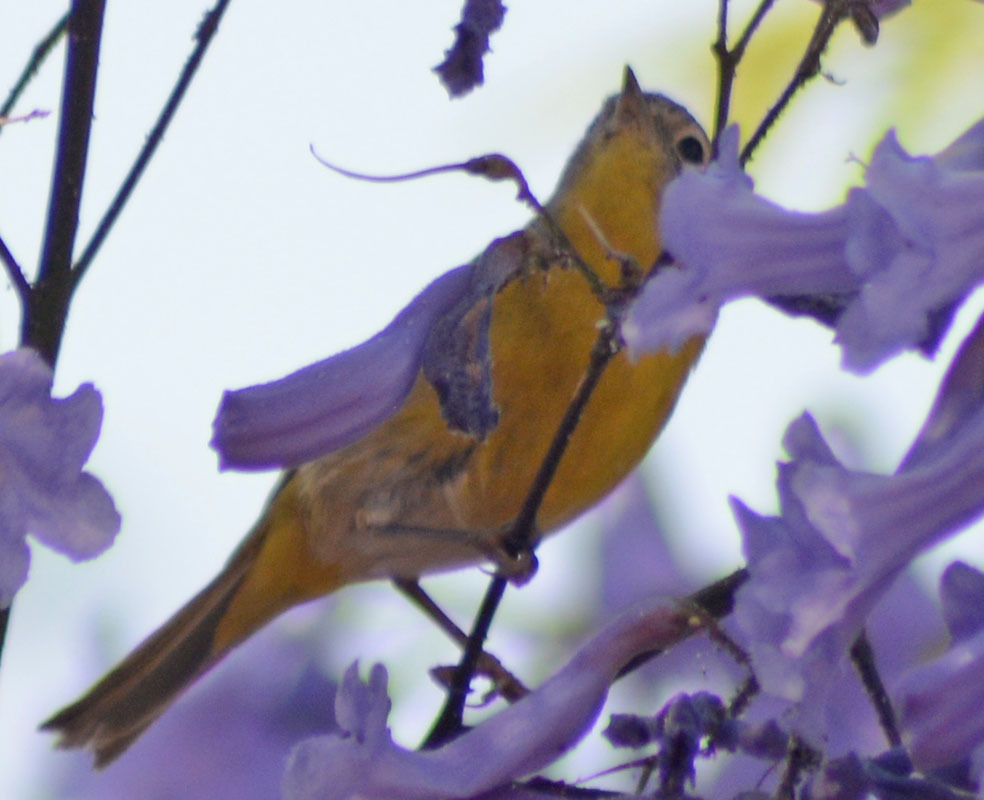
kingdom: Animalia
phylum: Chordata
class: Aves
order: Passeriformes
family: Parulidae
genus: Leiothlypis
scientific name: Leiothlypis ruficapilla
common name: Nashville warbler
